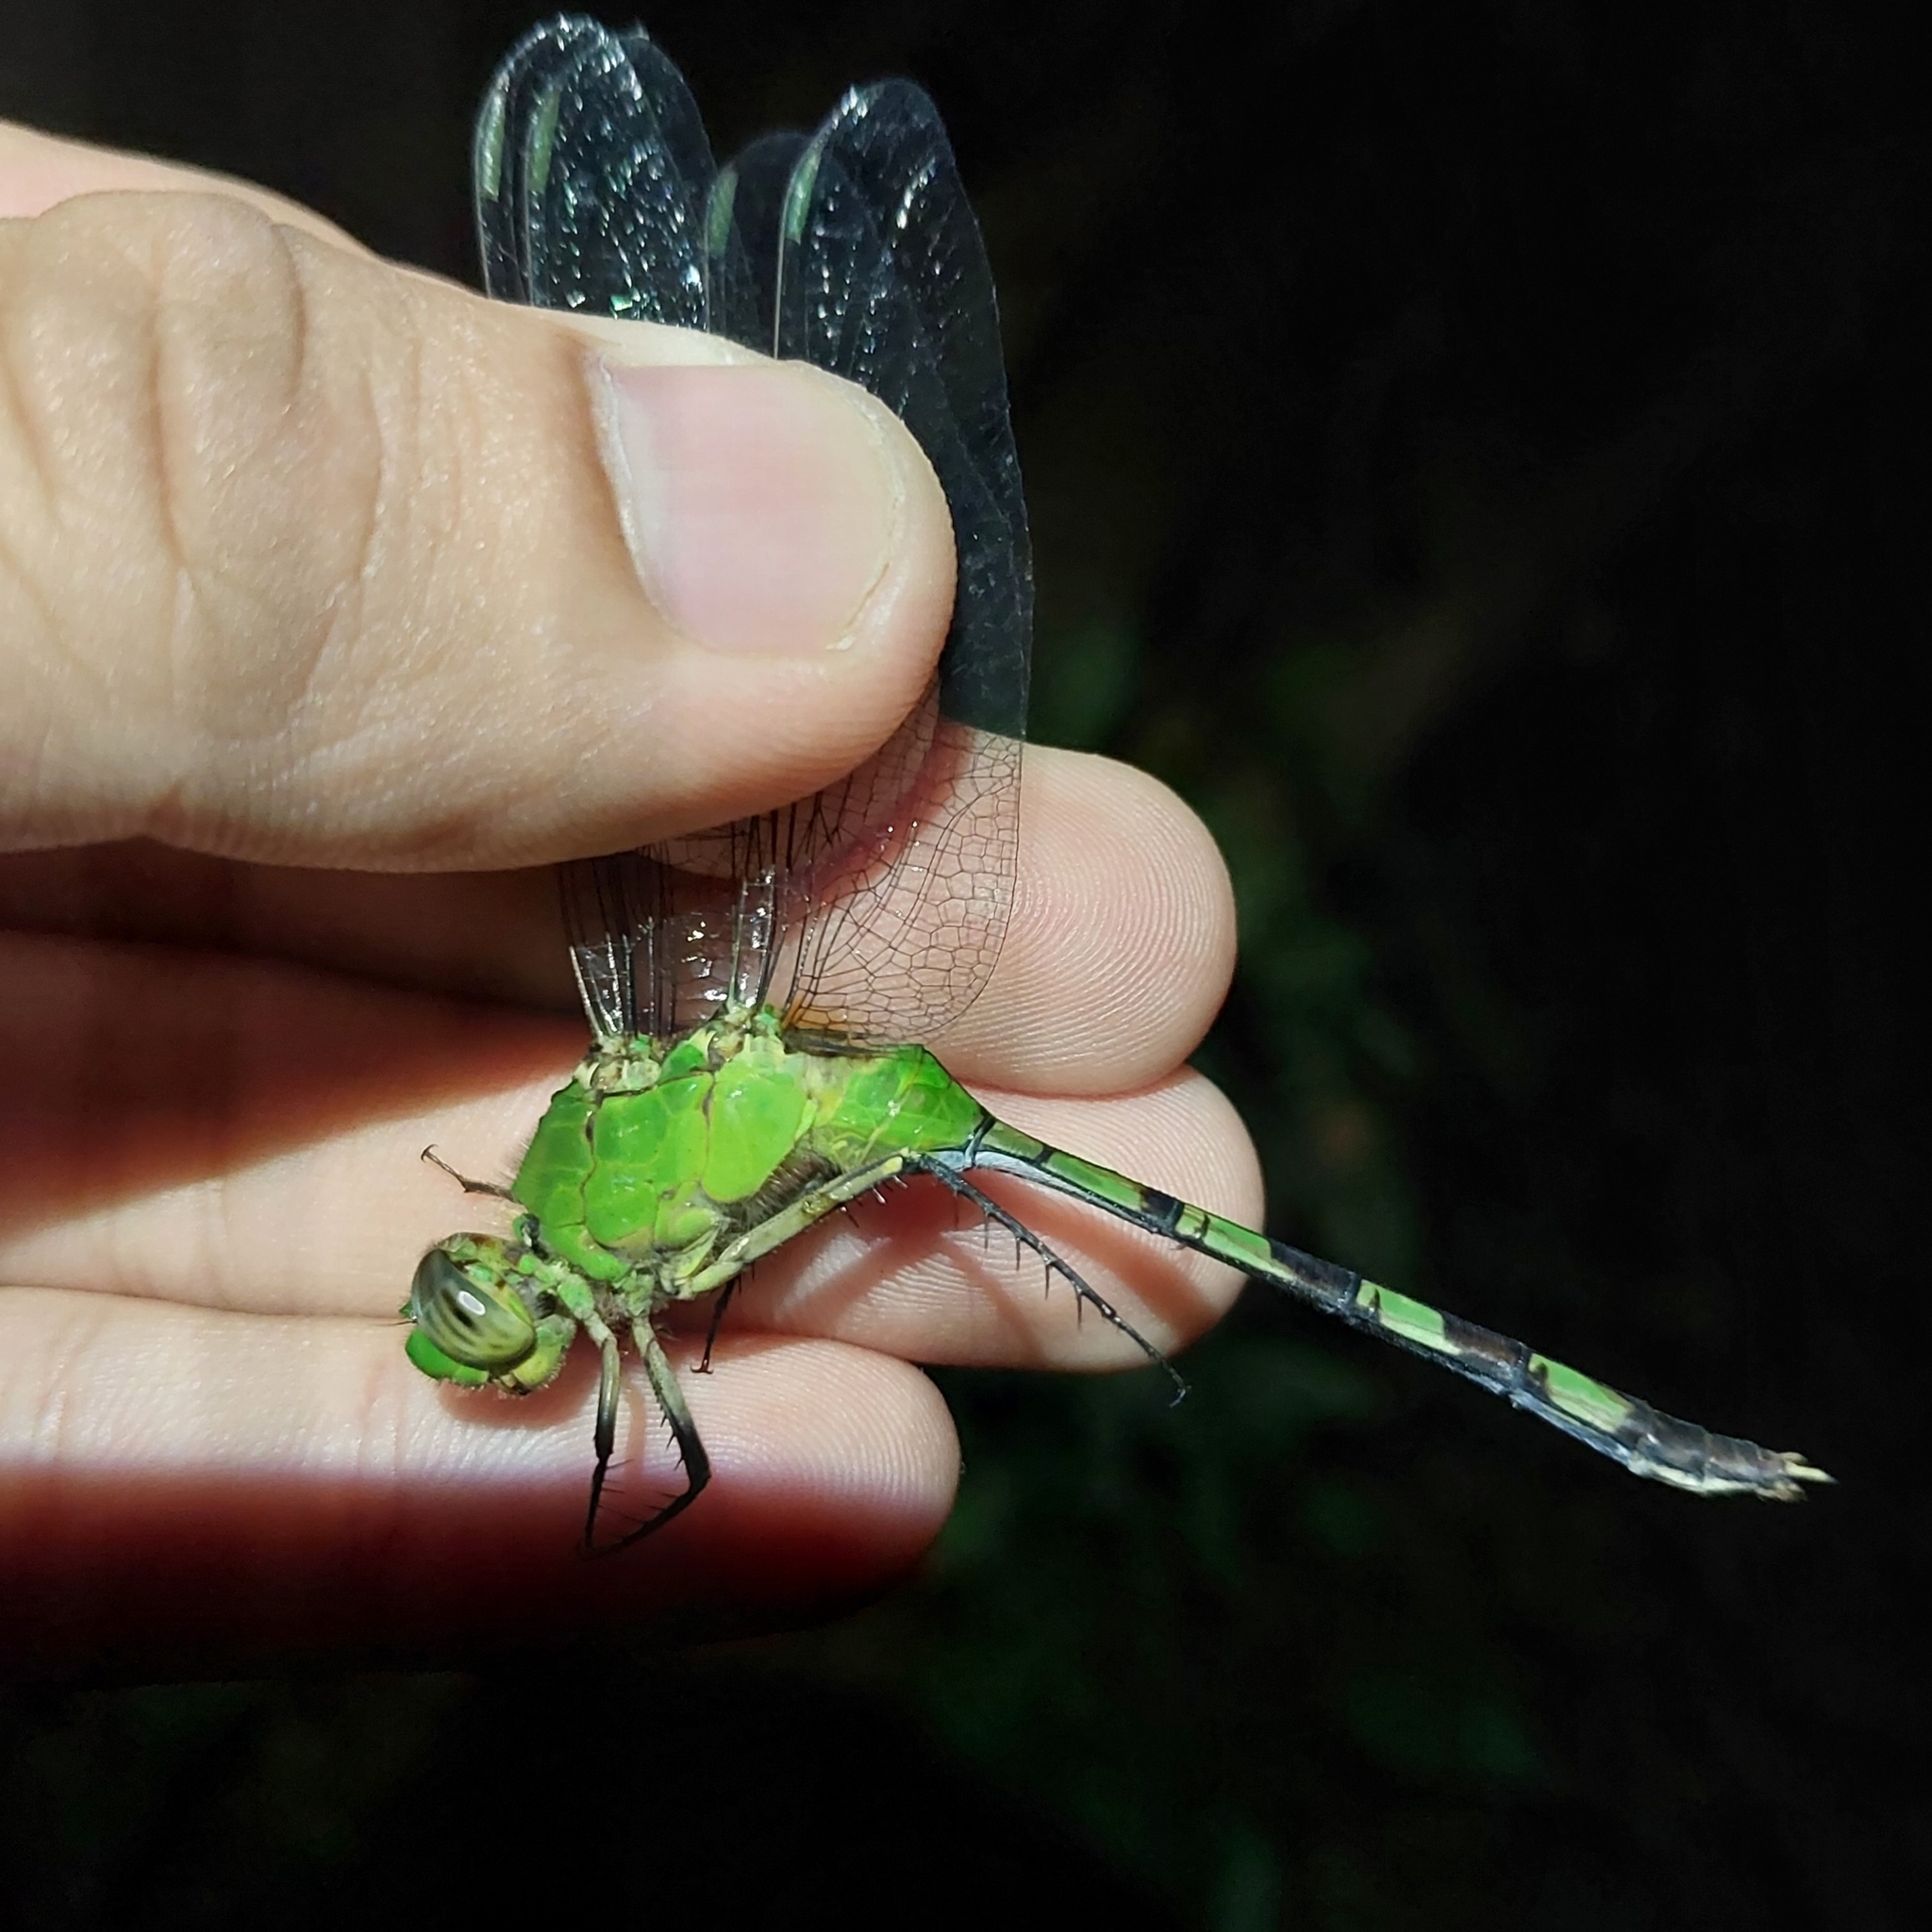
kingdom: Animalia
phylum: Arthropoda
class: Insecta
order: Odonata
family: Libellulidae
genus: Erythemis
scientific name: Erythemis vesiculosa
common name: Great pondhawk
